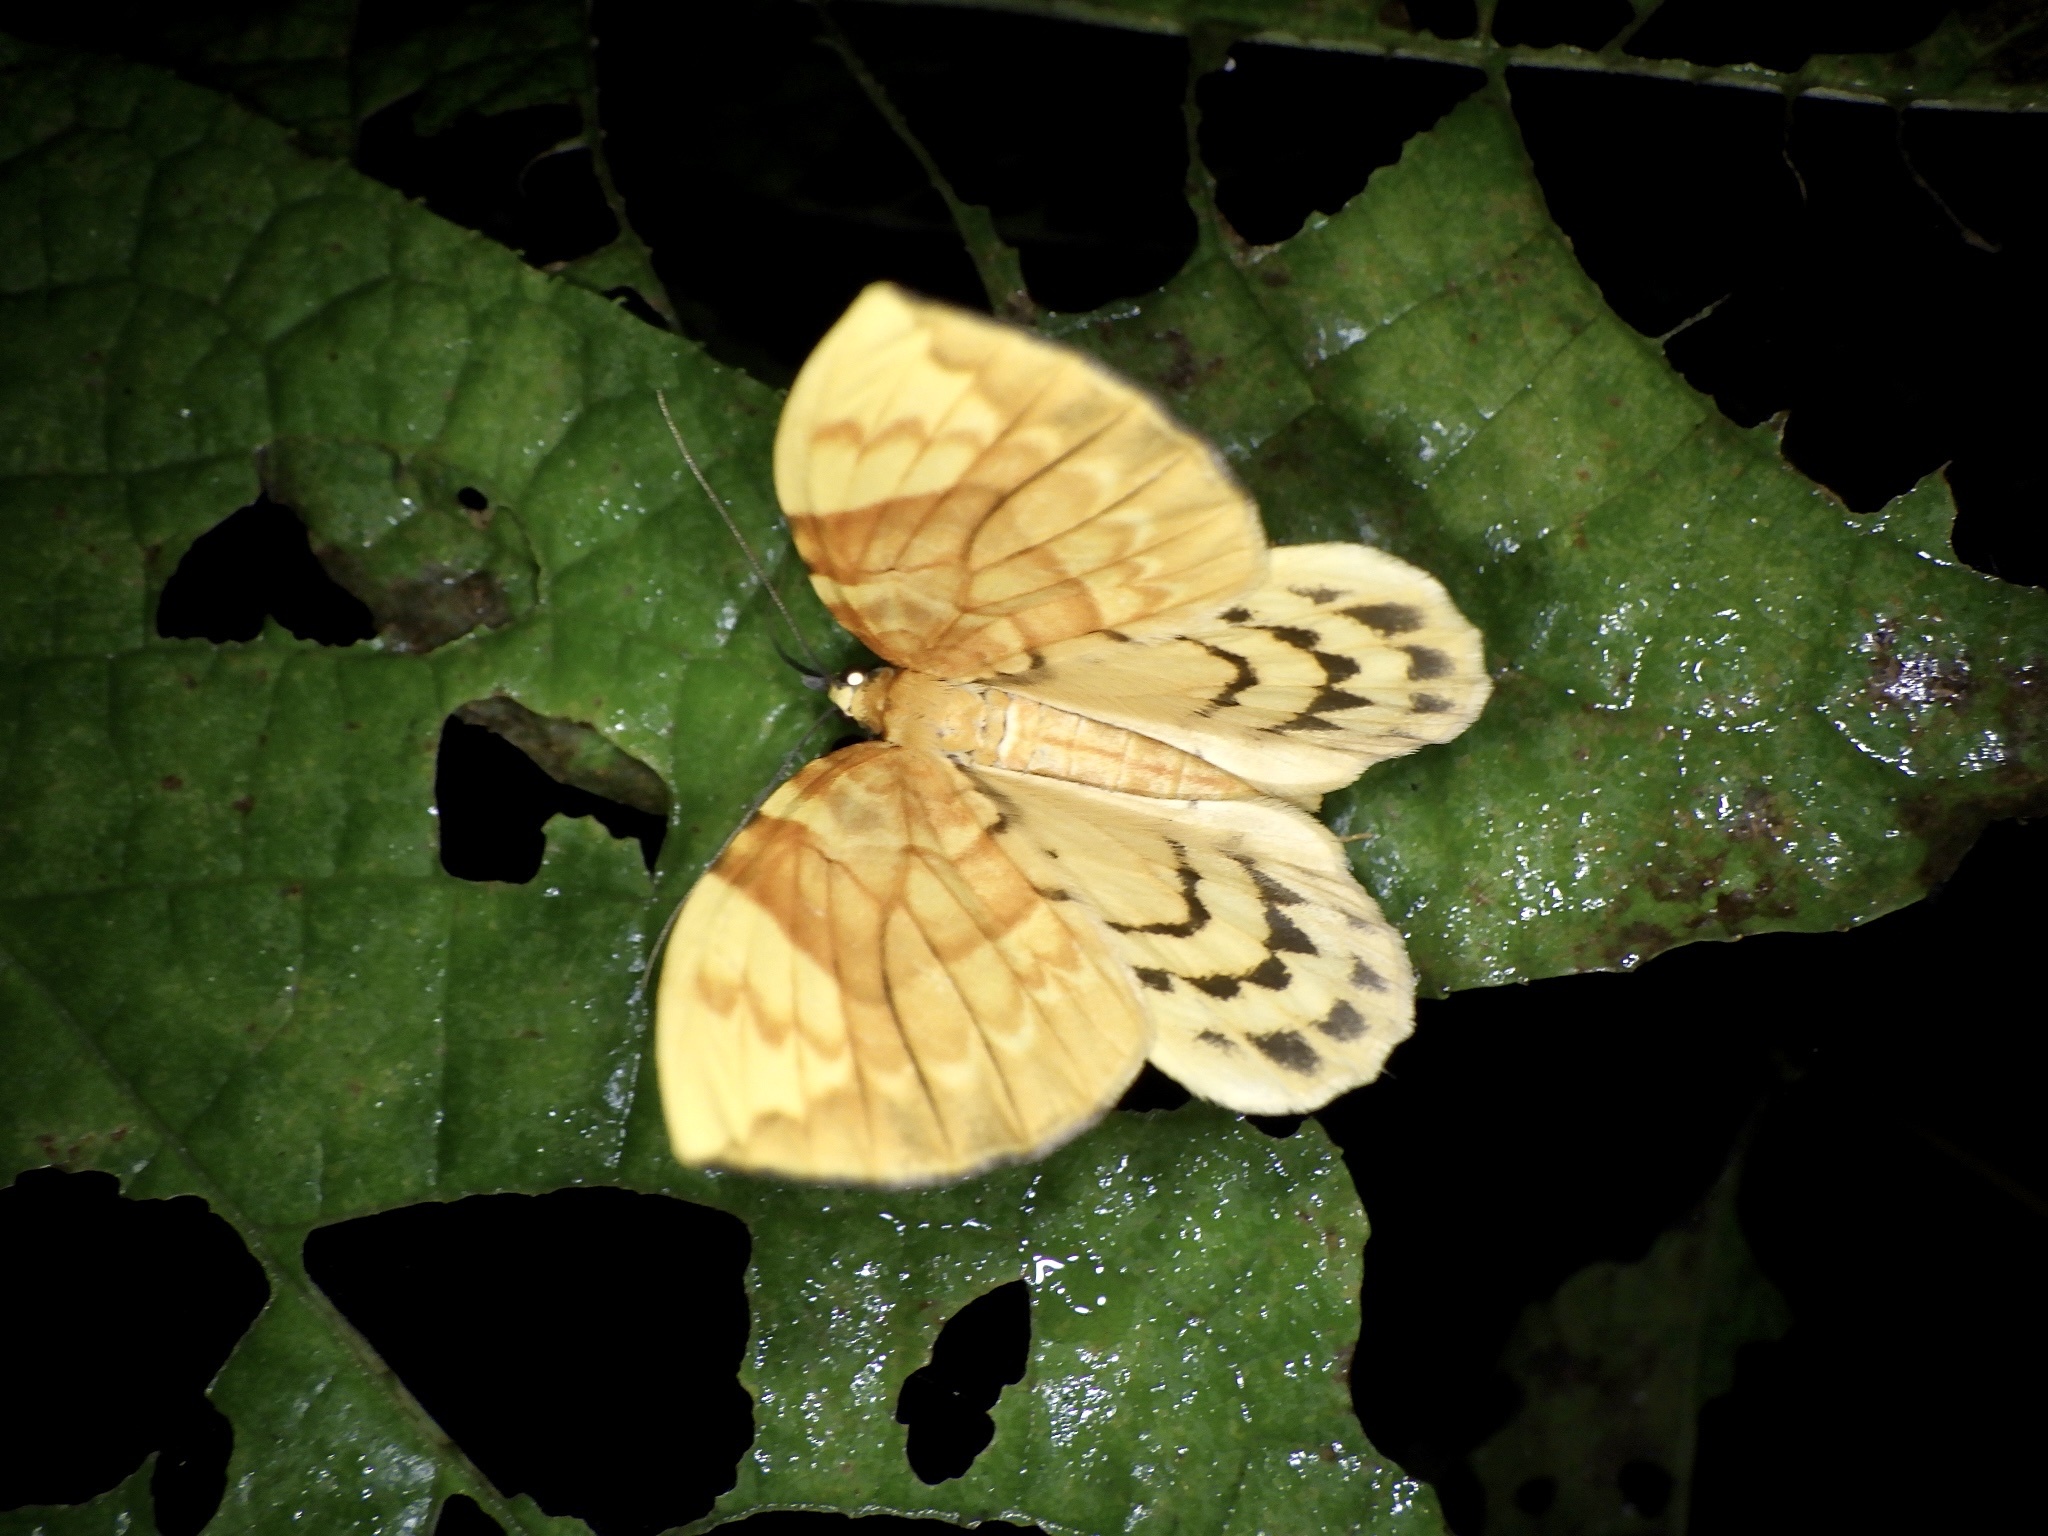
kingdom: Animalia
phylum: Arthropoda
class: Insecta
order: Lepidoptera
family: Geometridae
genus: Gandaritis
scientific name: Gandaritis fixseni
